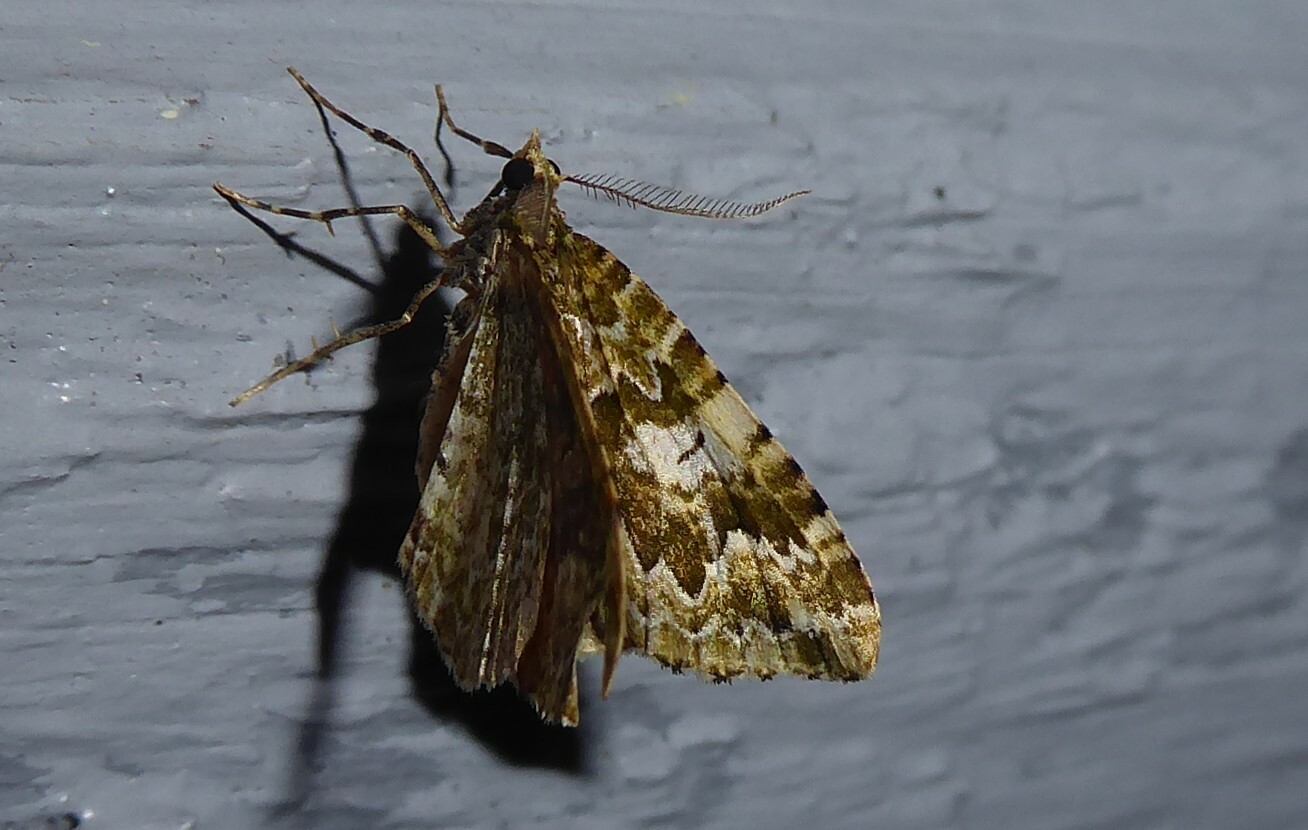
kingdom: Animalia
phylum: Arthropoda
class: Insecta
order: Lepidoptera
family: Geometridae
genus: Asaphodes
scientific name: Asaphodes beata
